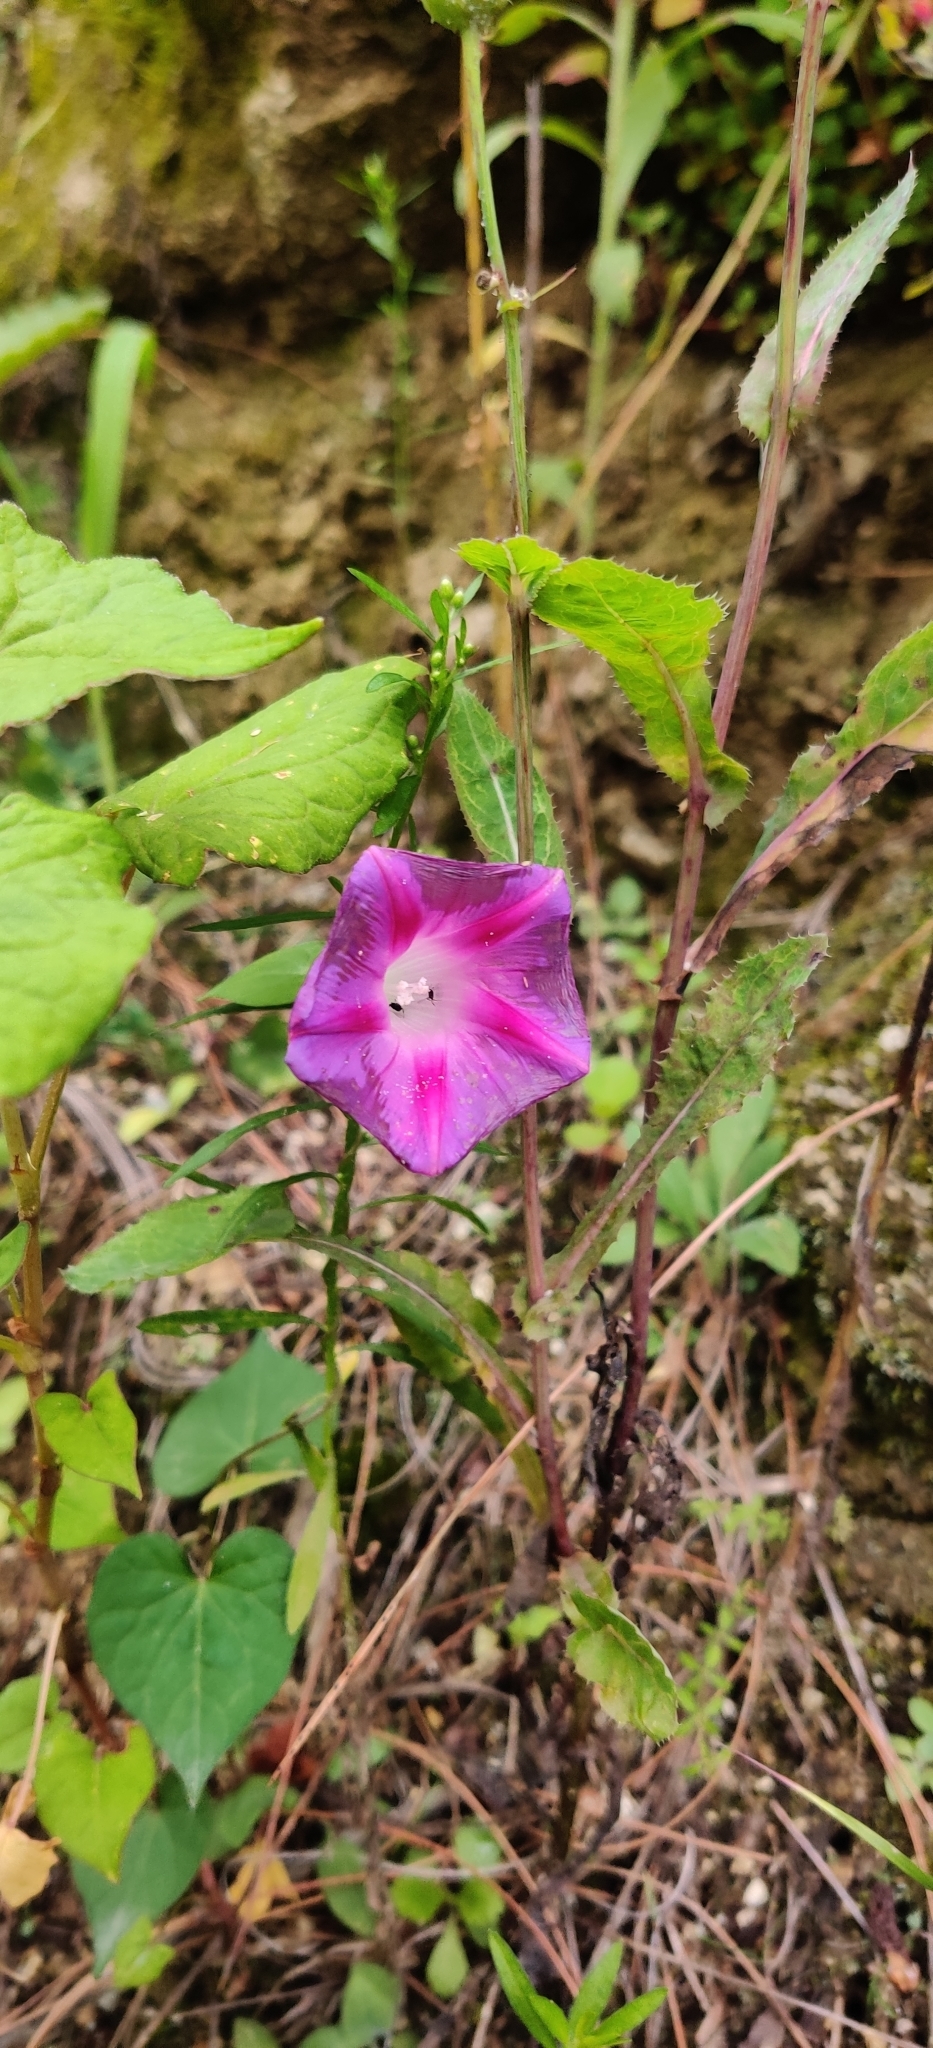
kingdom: Plantae
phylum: Tracheophyta
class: Magnoliopsida
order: Solanales
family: Convolvulaceae
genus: Ipomoea
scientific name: Ipomoea purpurea
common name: Common morning-glory
